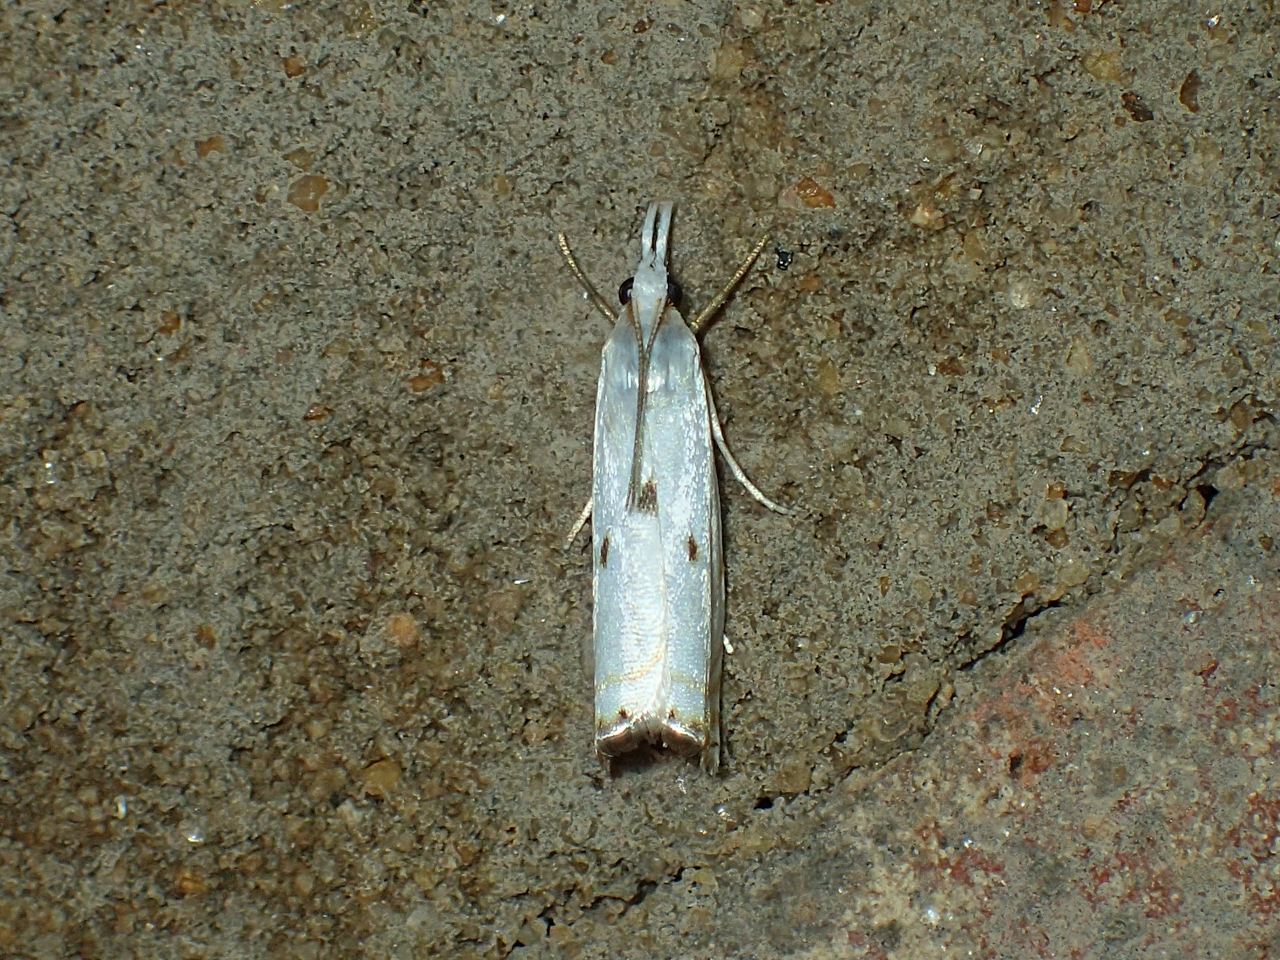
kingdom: Animalia
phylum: Arthropoda
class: Insecta
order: Lepidoptera
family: Crambidae
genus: Microcrambus
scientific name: Microcrambus biguttellus
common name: Gold-stripe grass-veneer moth
